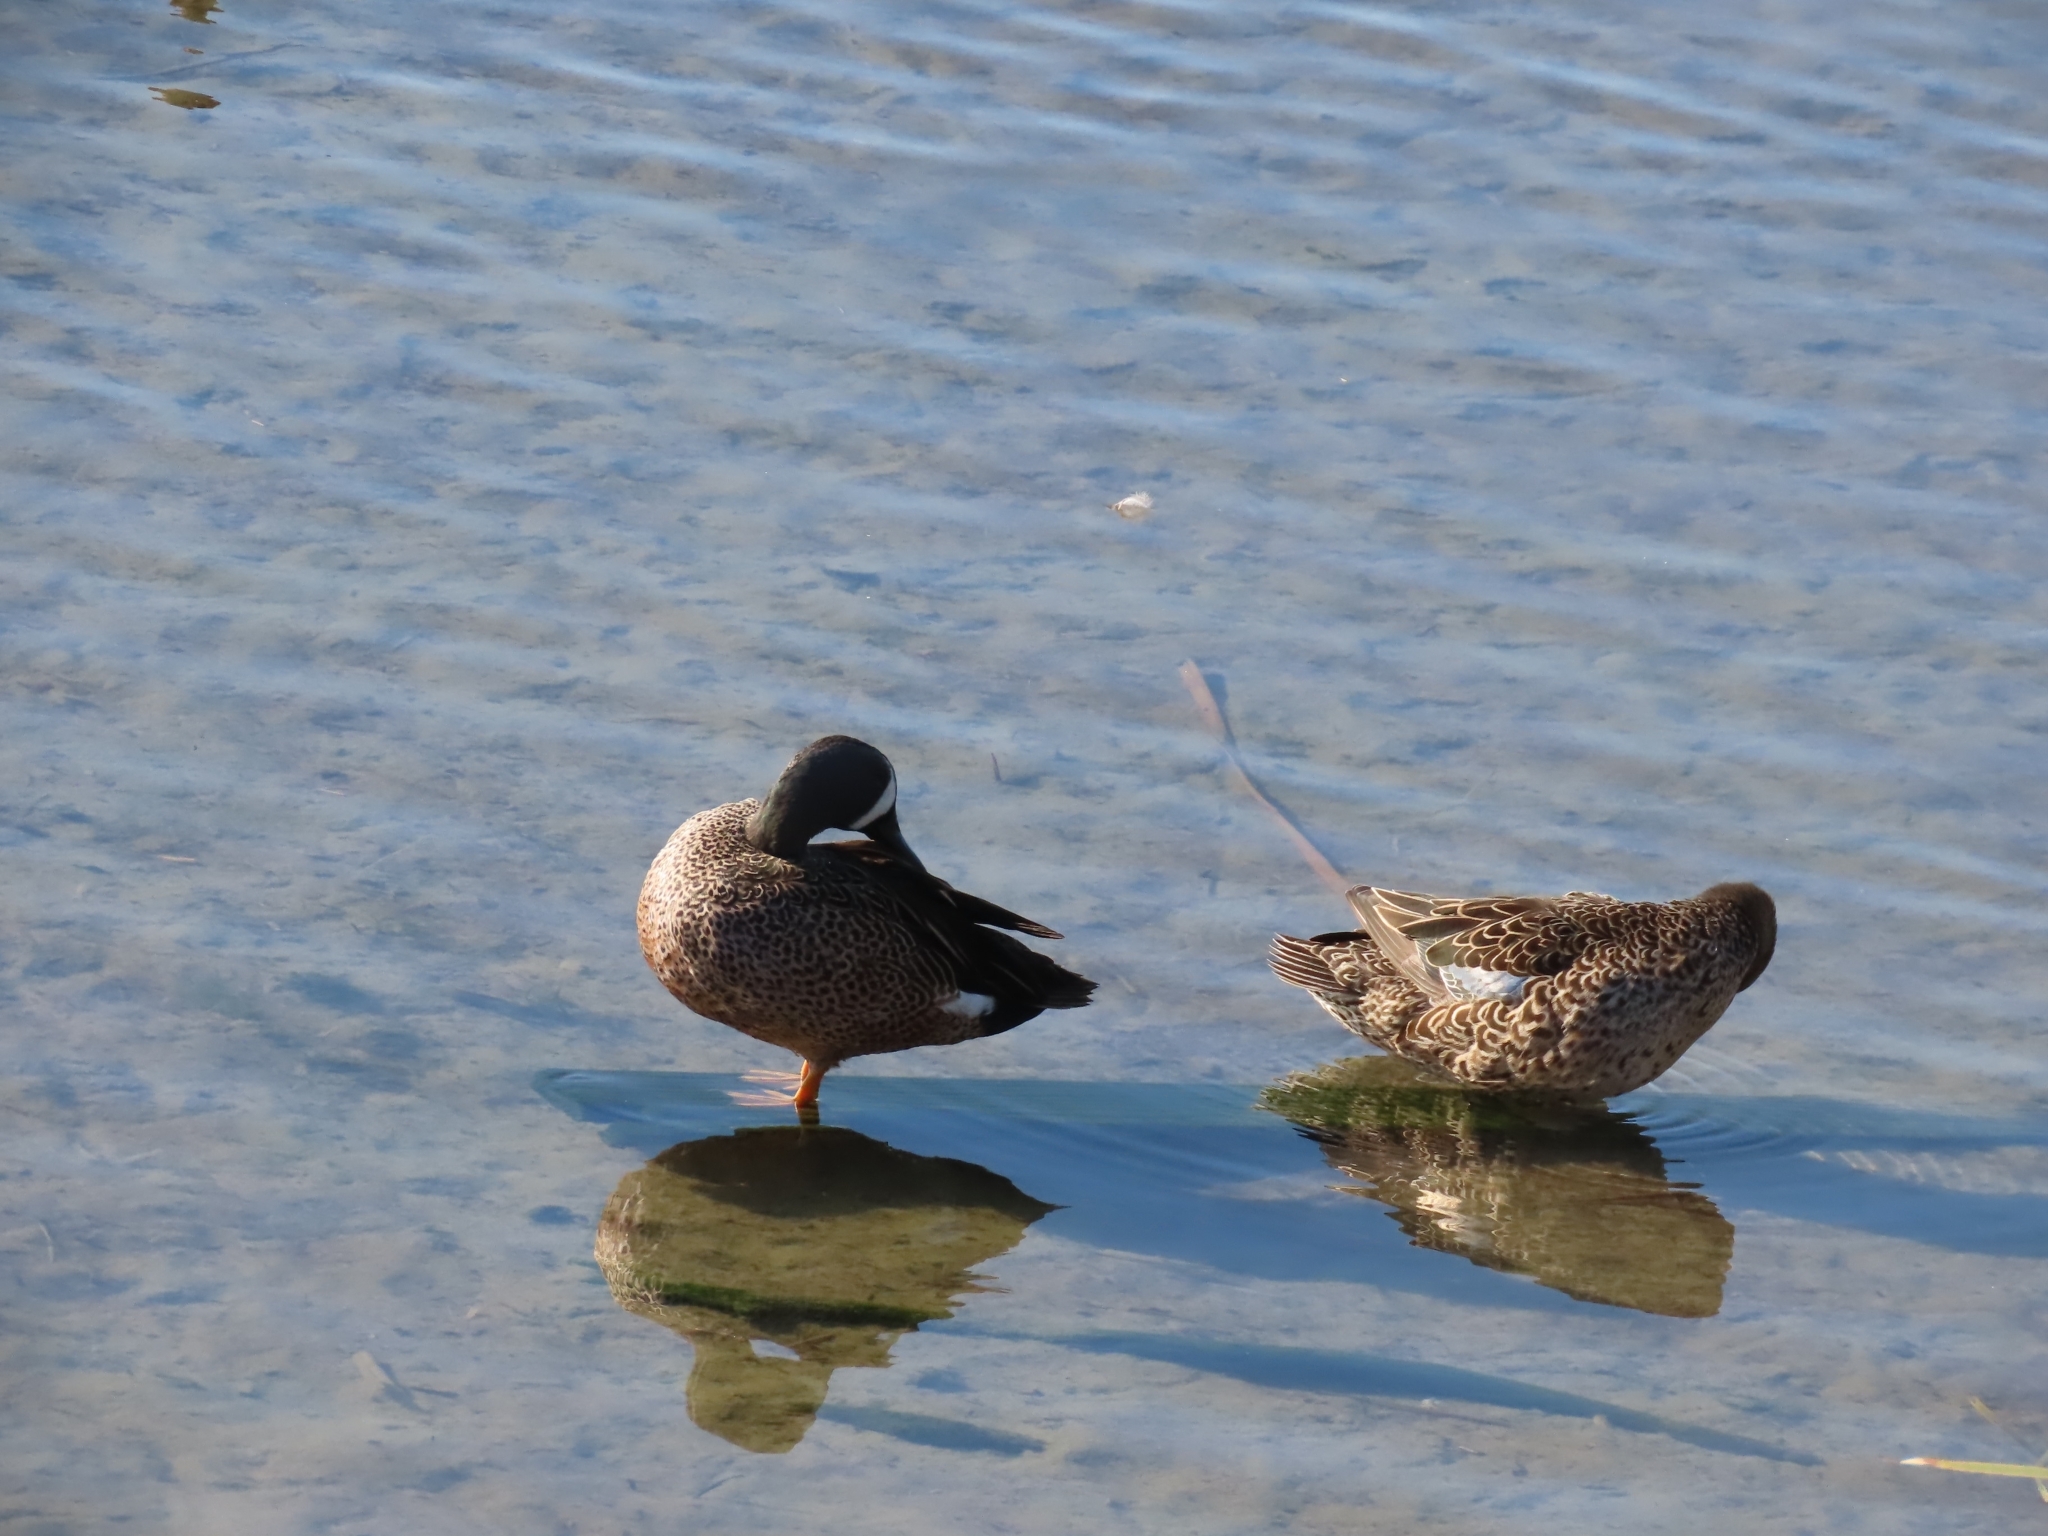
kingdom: Animalia
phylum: Chordata
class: Aves
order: Anseriformes
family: Anatidae
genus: Spatula
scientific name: Spatula discors
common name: Blue-winged teal
